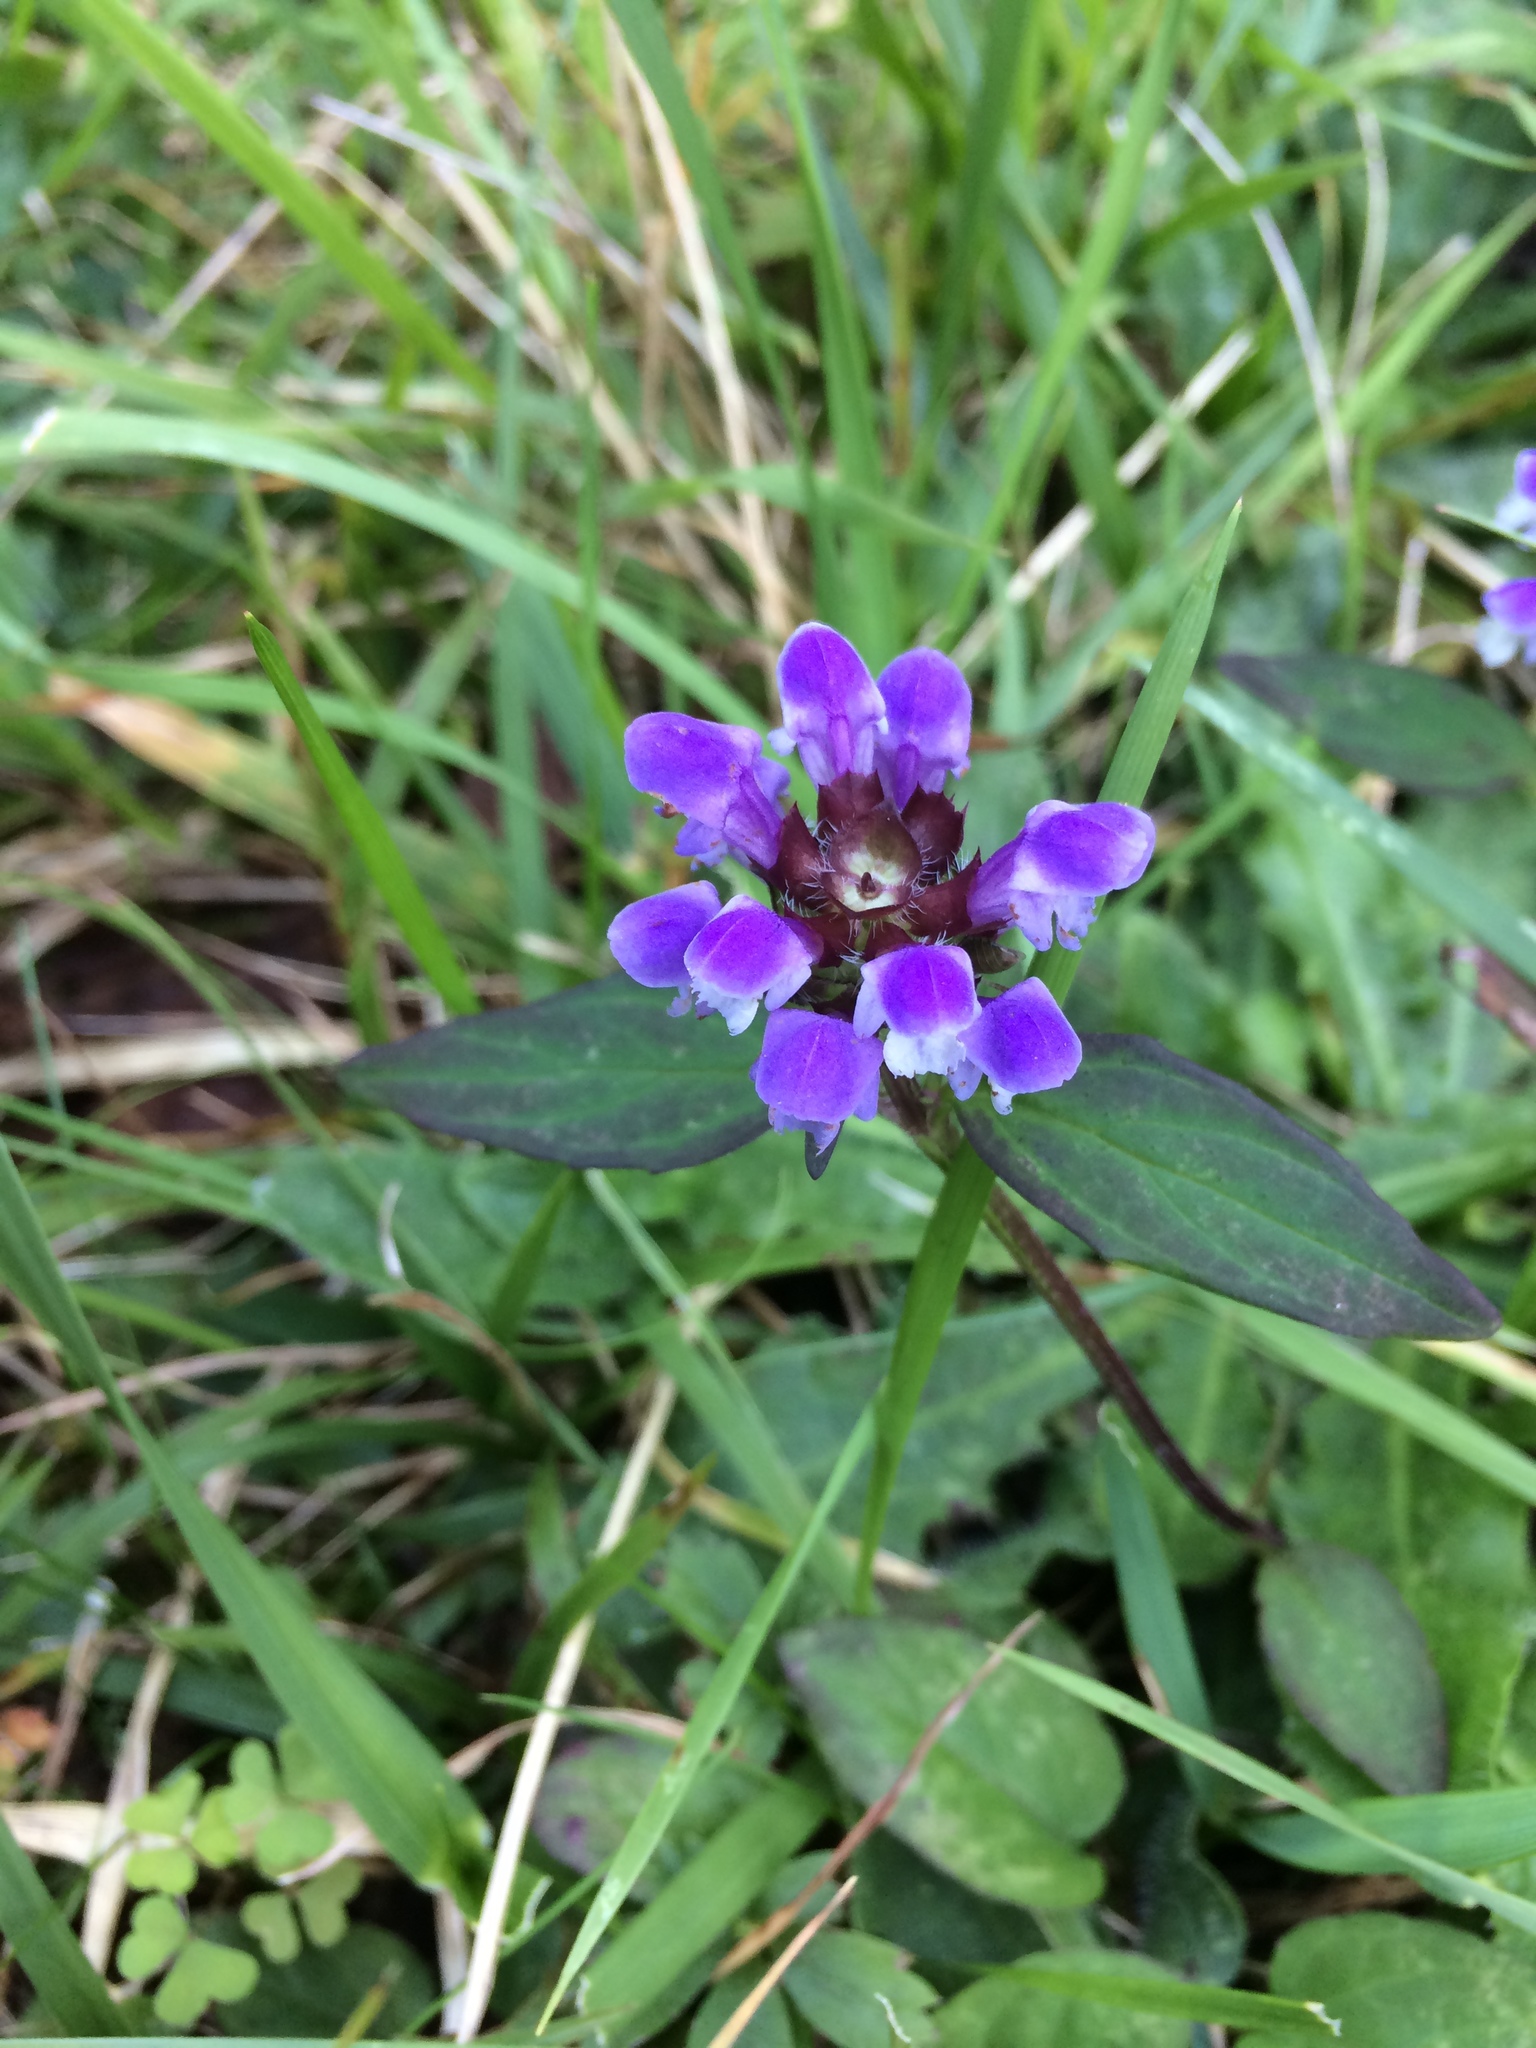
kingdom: Plantae
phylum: Tracheophyta
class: Magnoliopsida
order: Lamiales
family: Lamiaceae
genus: Prunella
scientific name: Prunella vulgaris
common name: Heal-all
